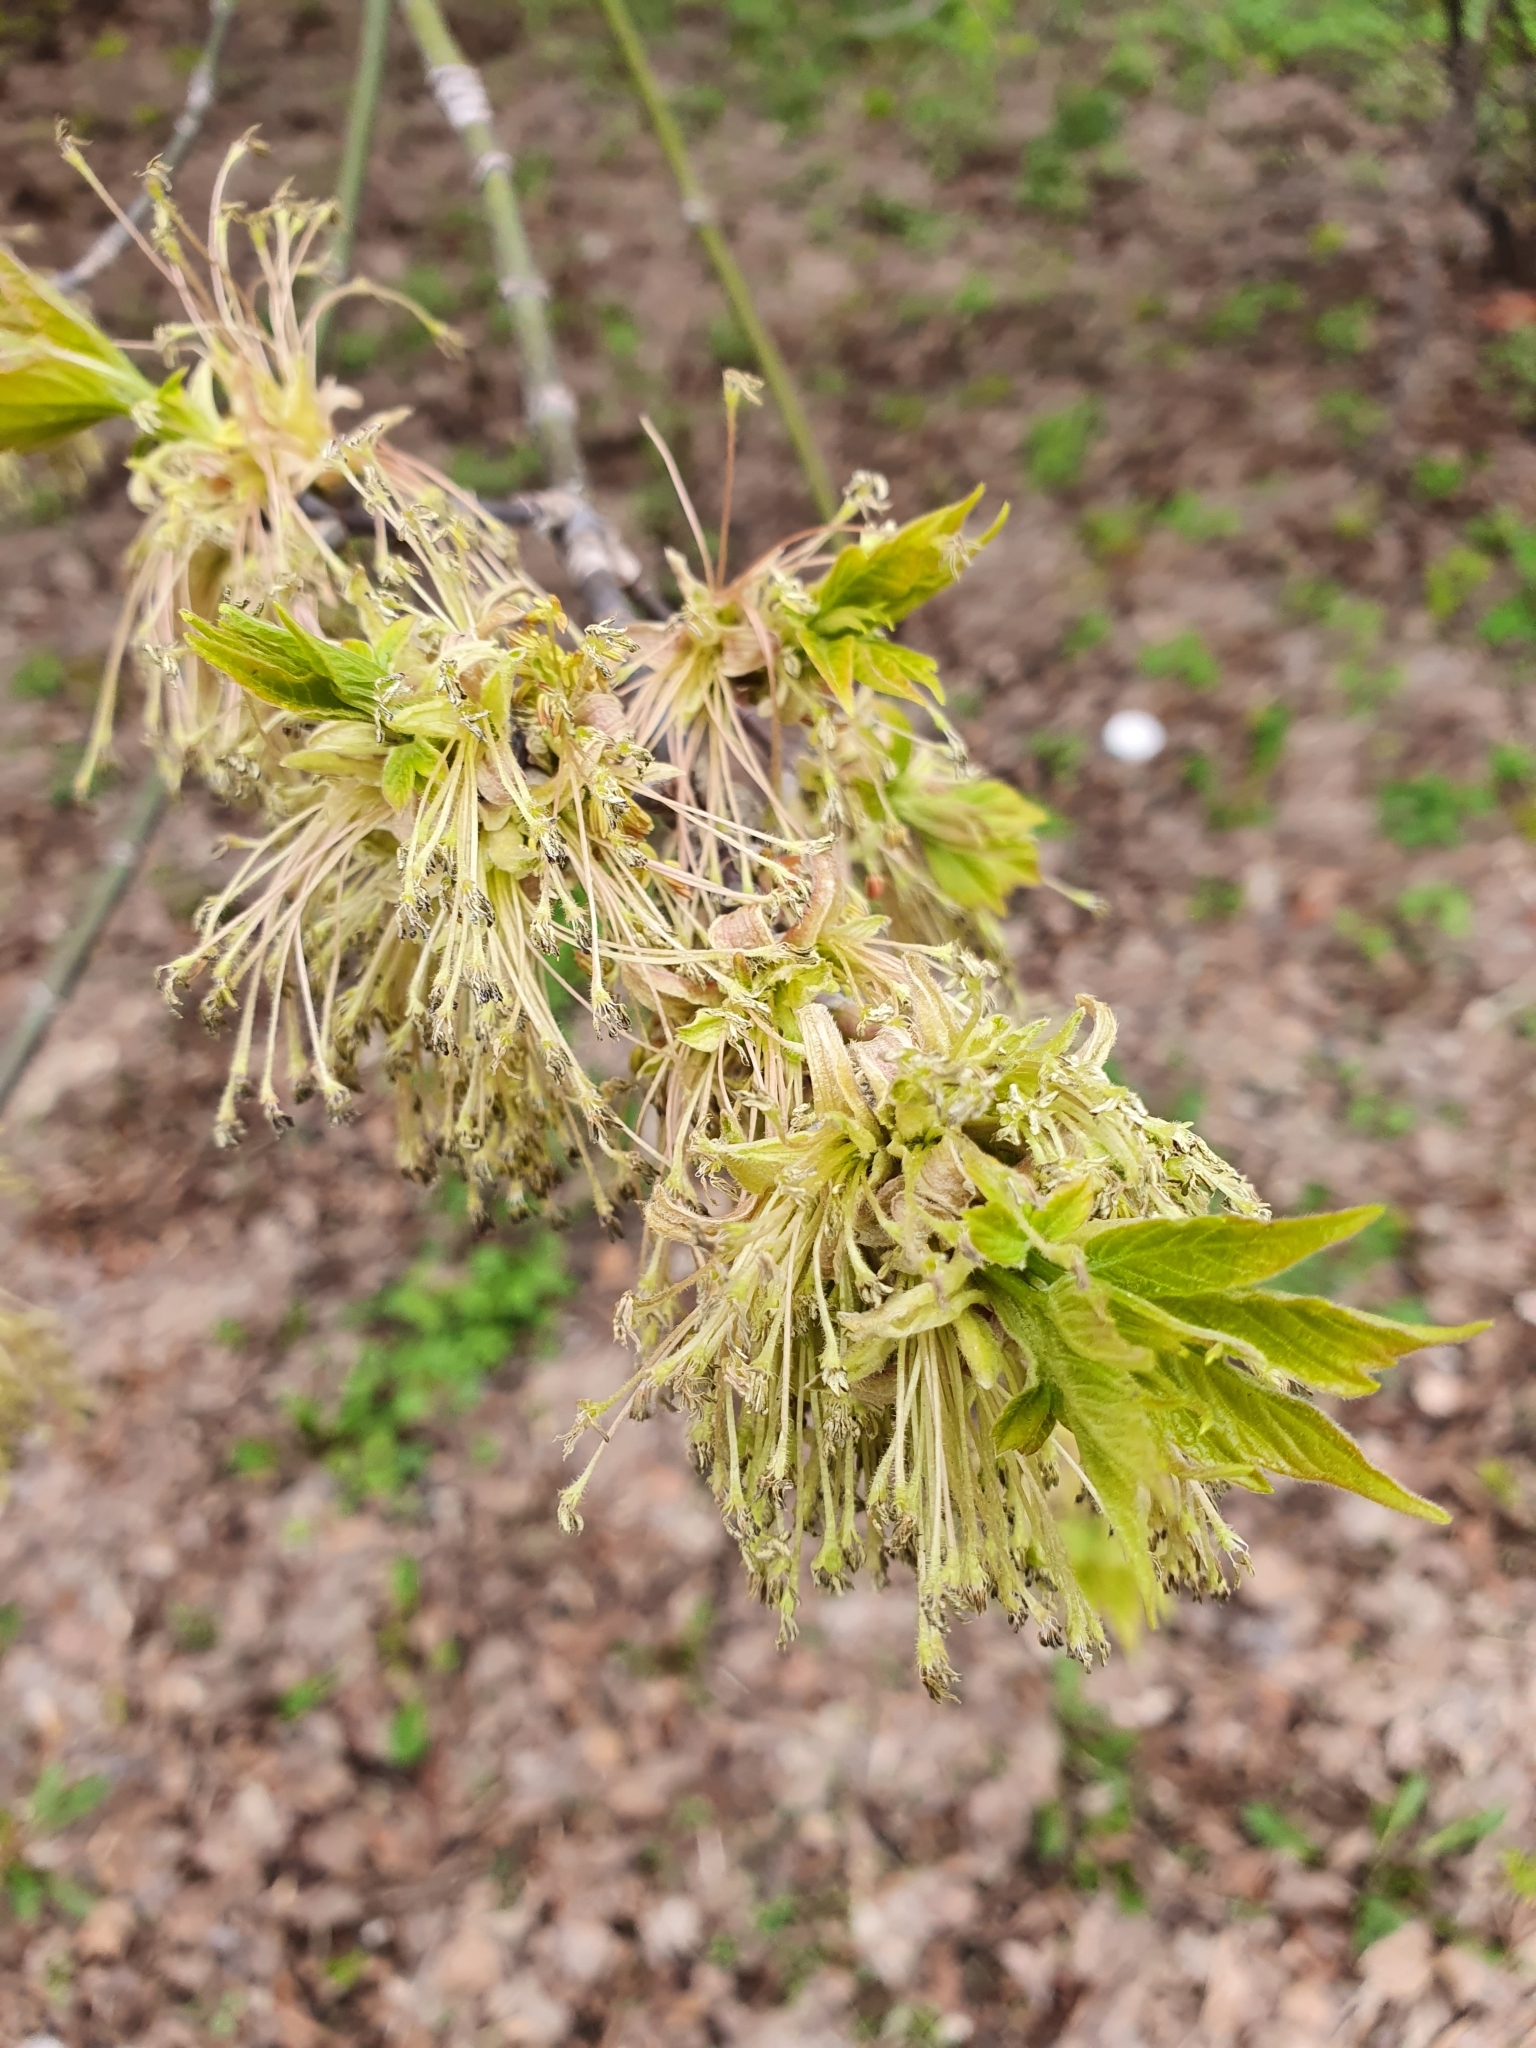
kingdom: Plantae
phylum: Tracheophyta
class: Magnoliopsida
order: Sapindales
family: Sapindaceae
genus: Acer
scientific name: Acer negundo
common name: Ashleaf maple
